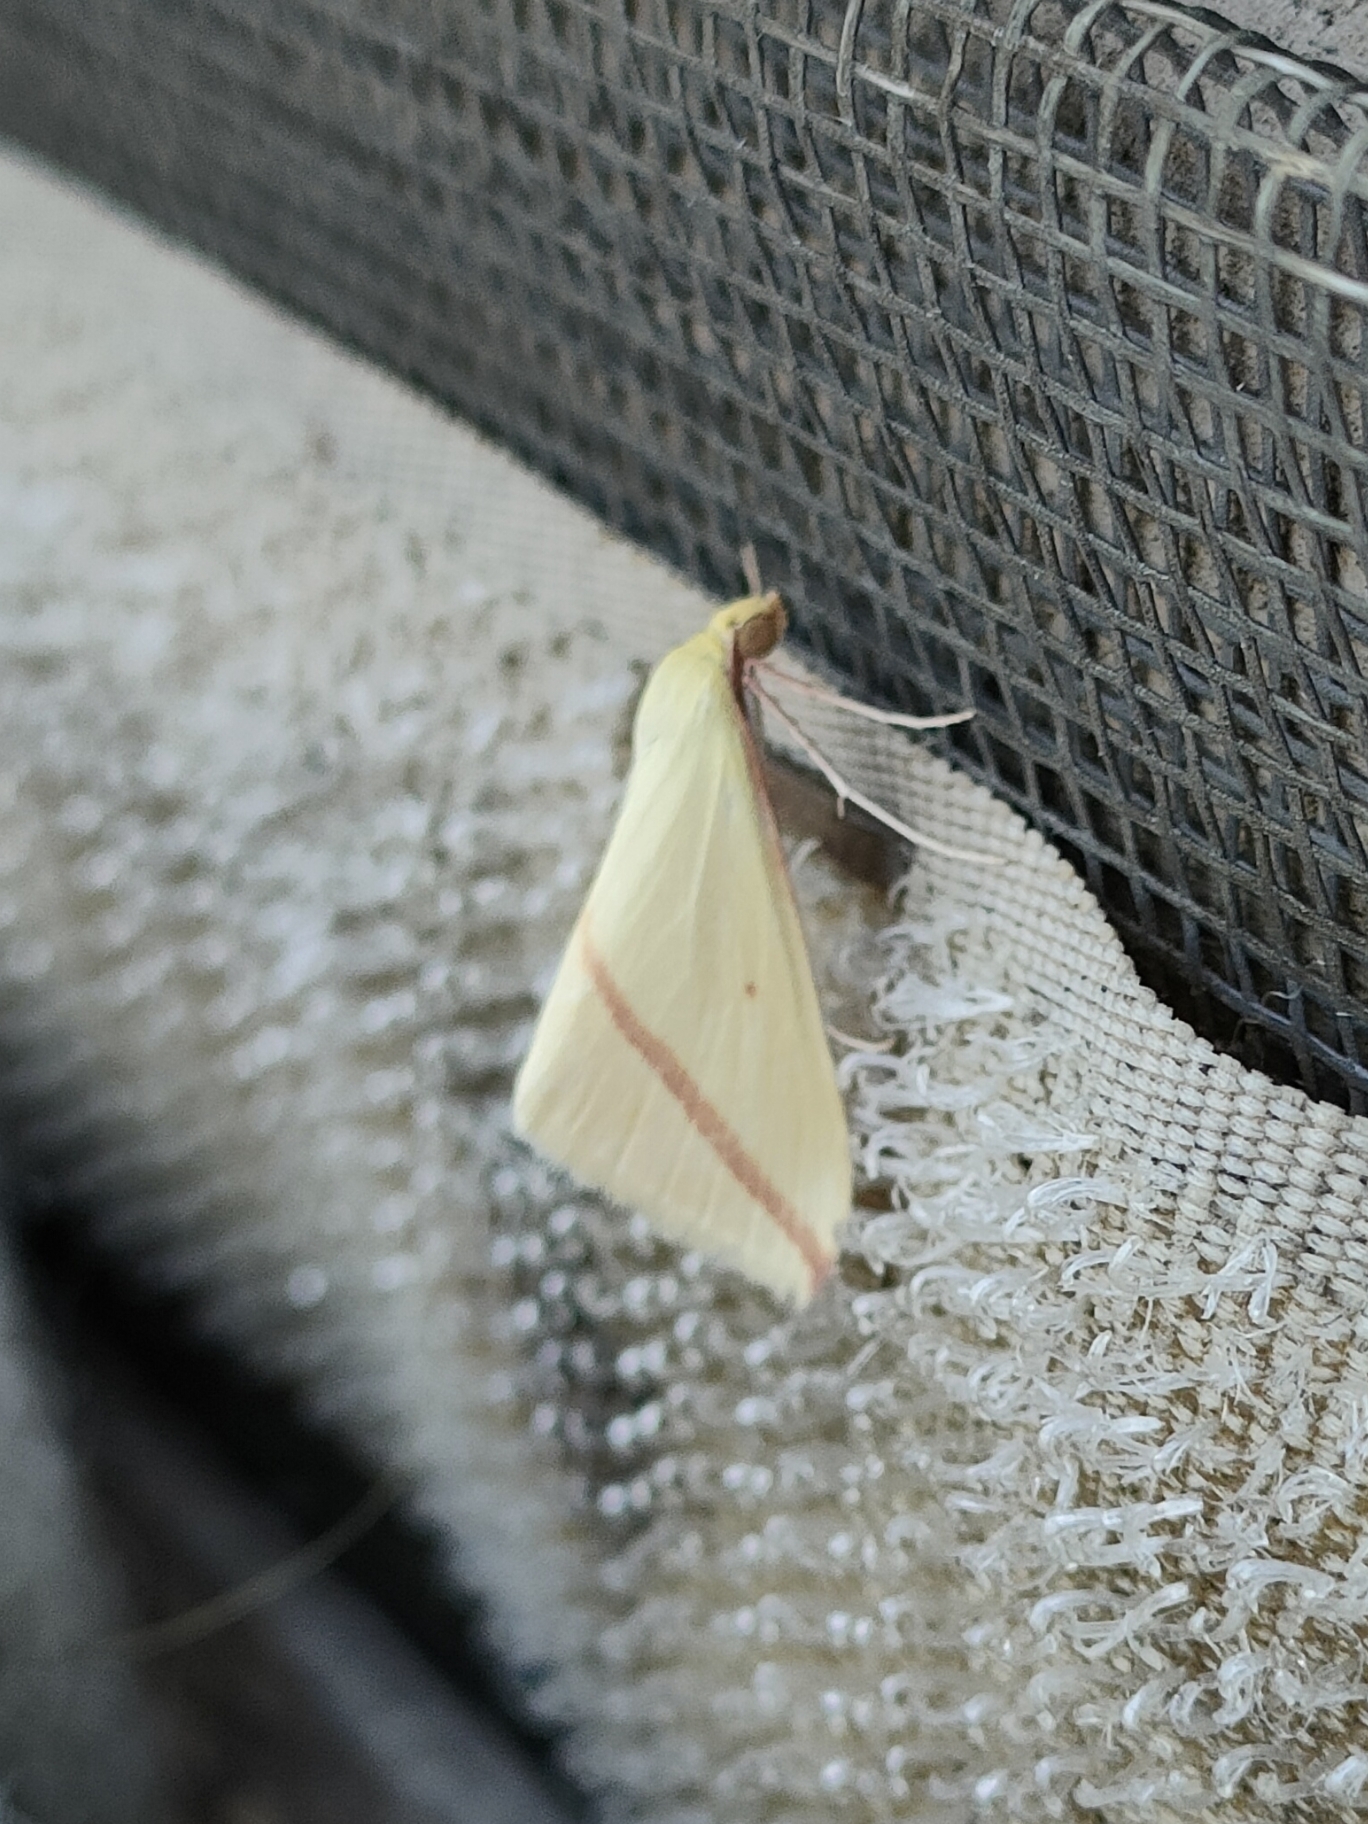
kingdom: Animalia
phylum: Arthropoda
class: Insecta
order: Lepidoptera
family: Geometridae
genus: Rhodometra
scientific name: Rhodometra sacraria
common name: Vestal
